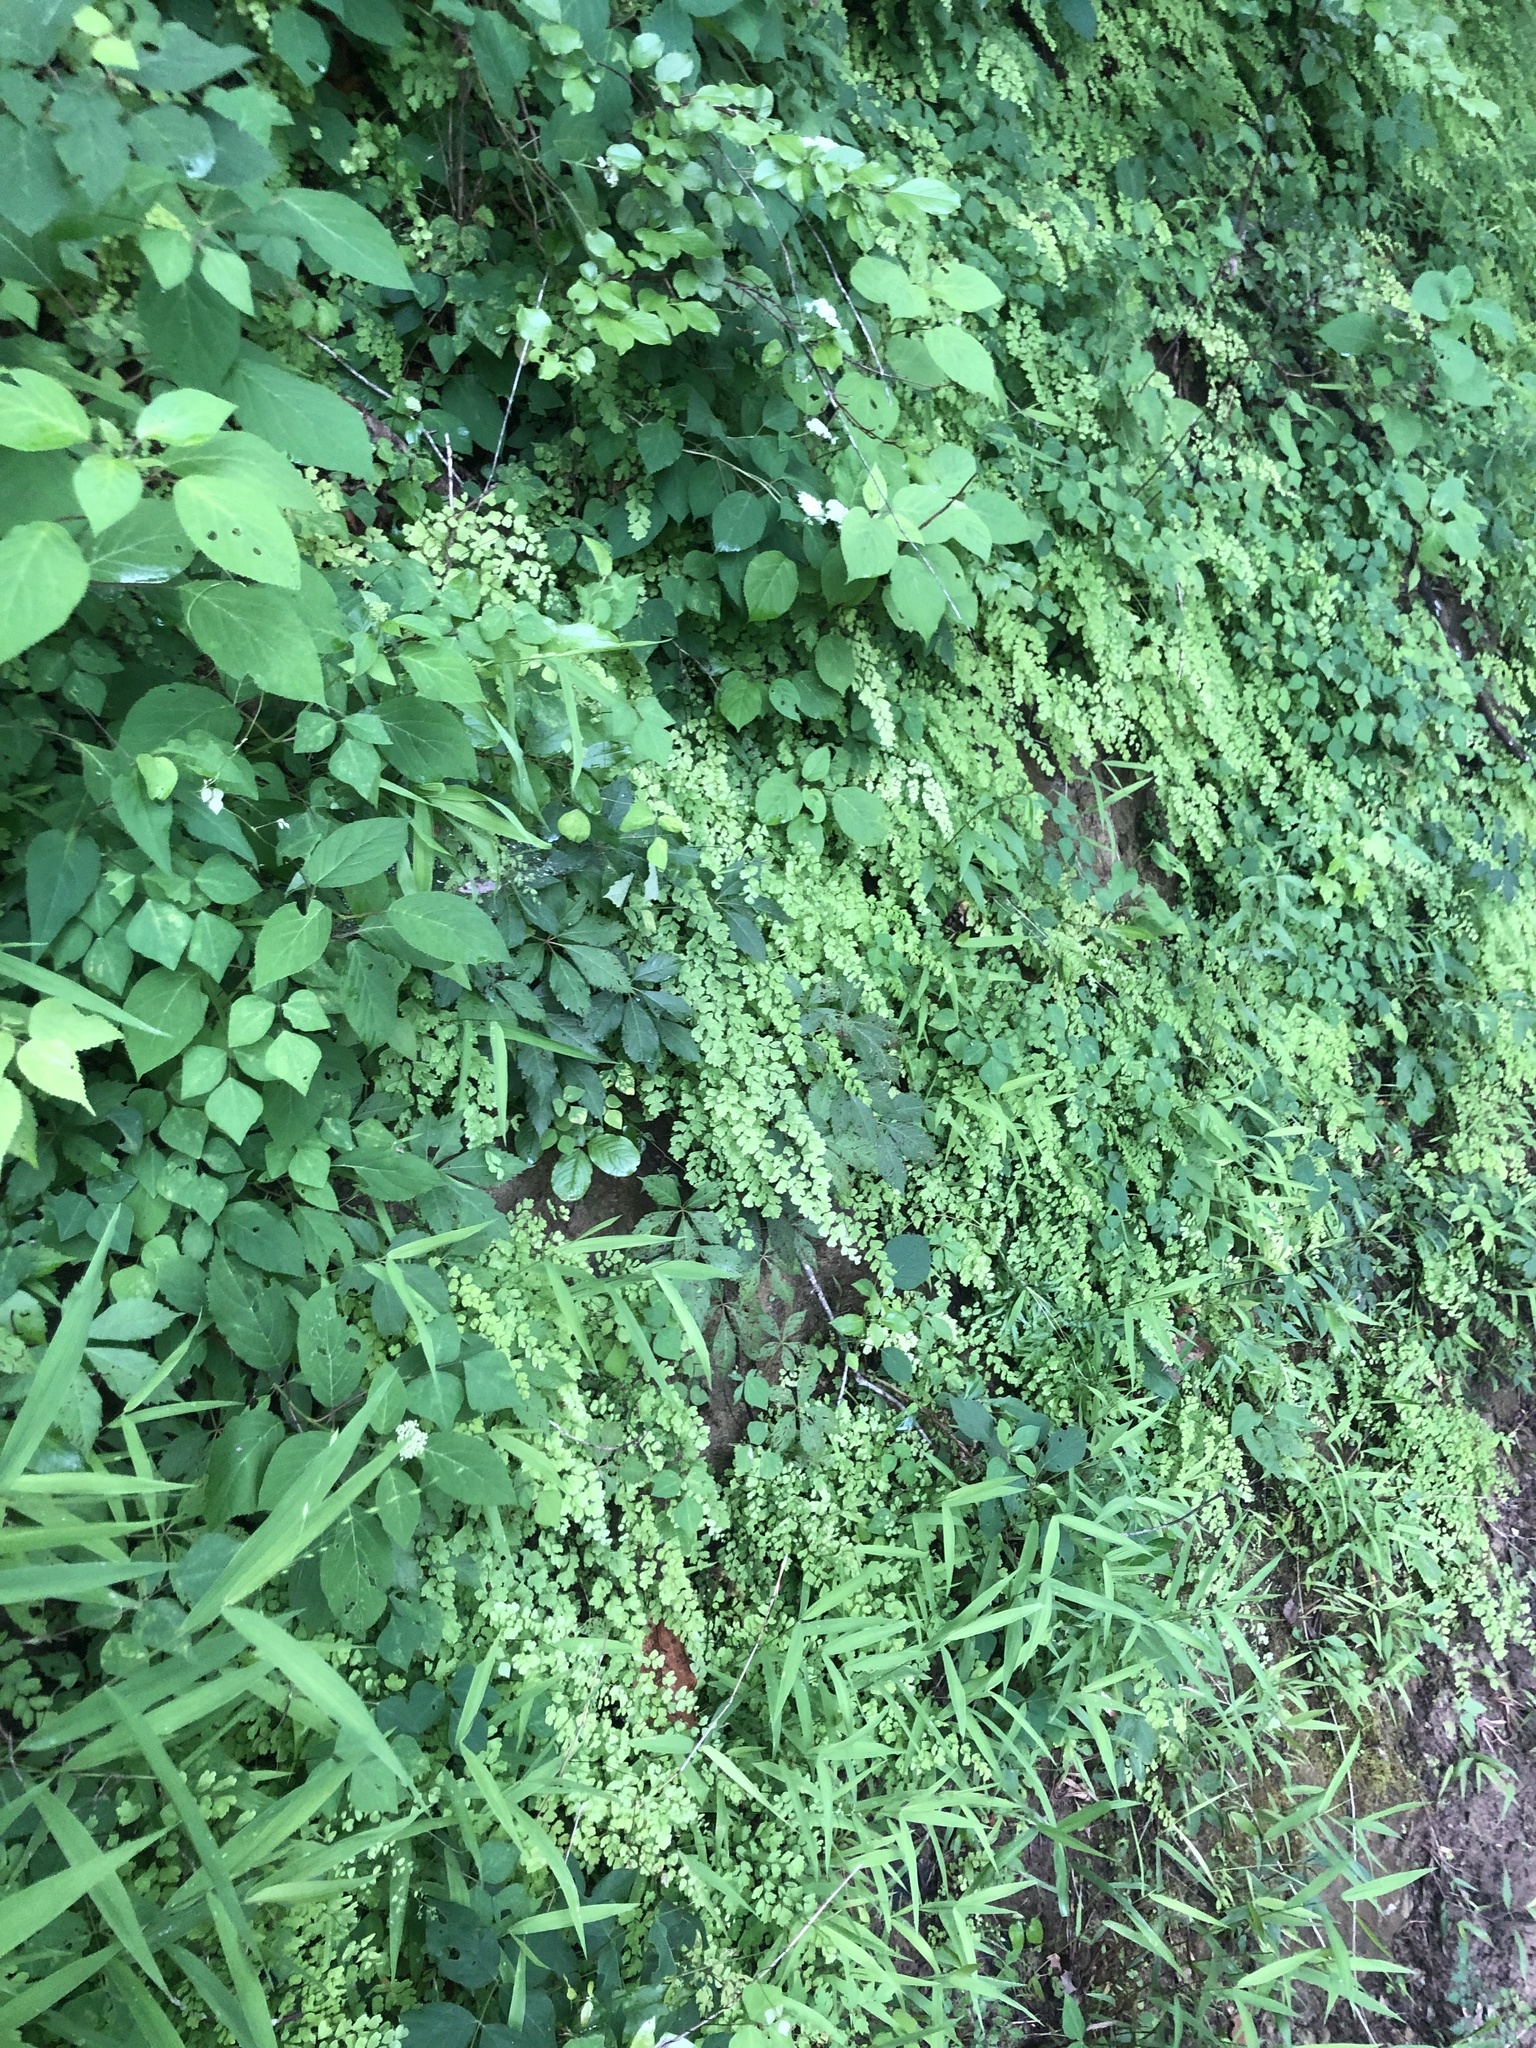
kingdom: Plantae
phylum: Tracheophyta
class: Polypodiopsida
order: Polypodiales
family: Pteridaceae
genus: Adiantum
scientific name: Adiantum capillus-veneris
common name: Maidenhair fern
